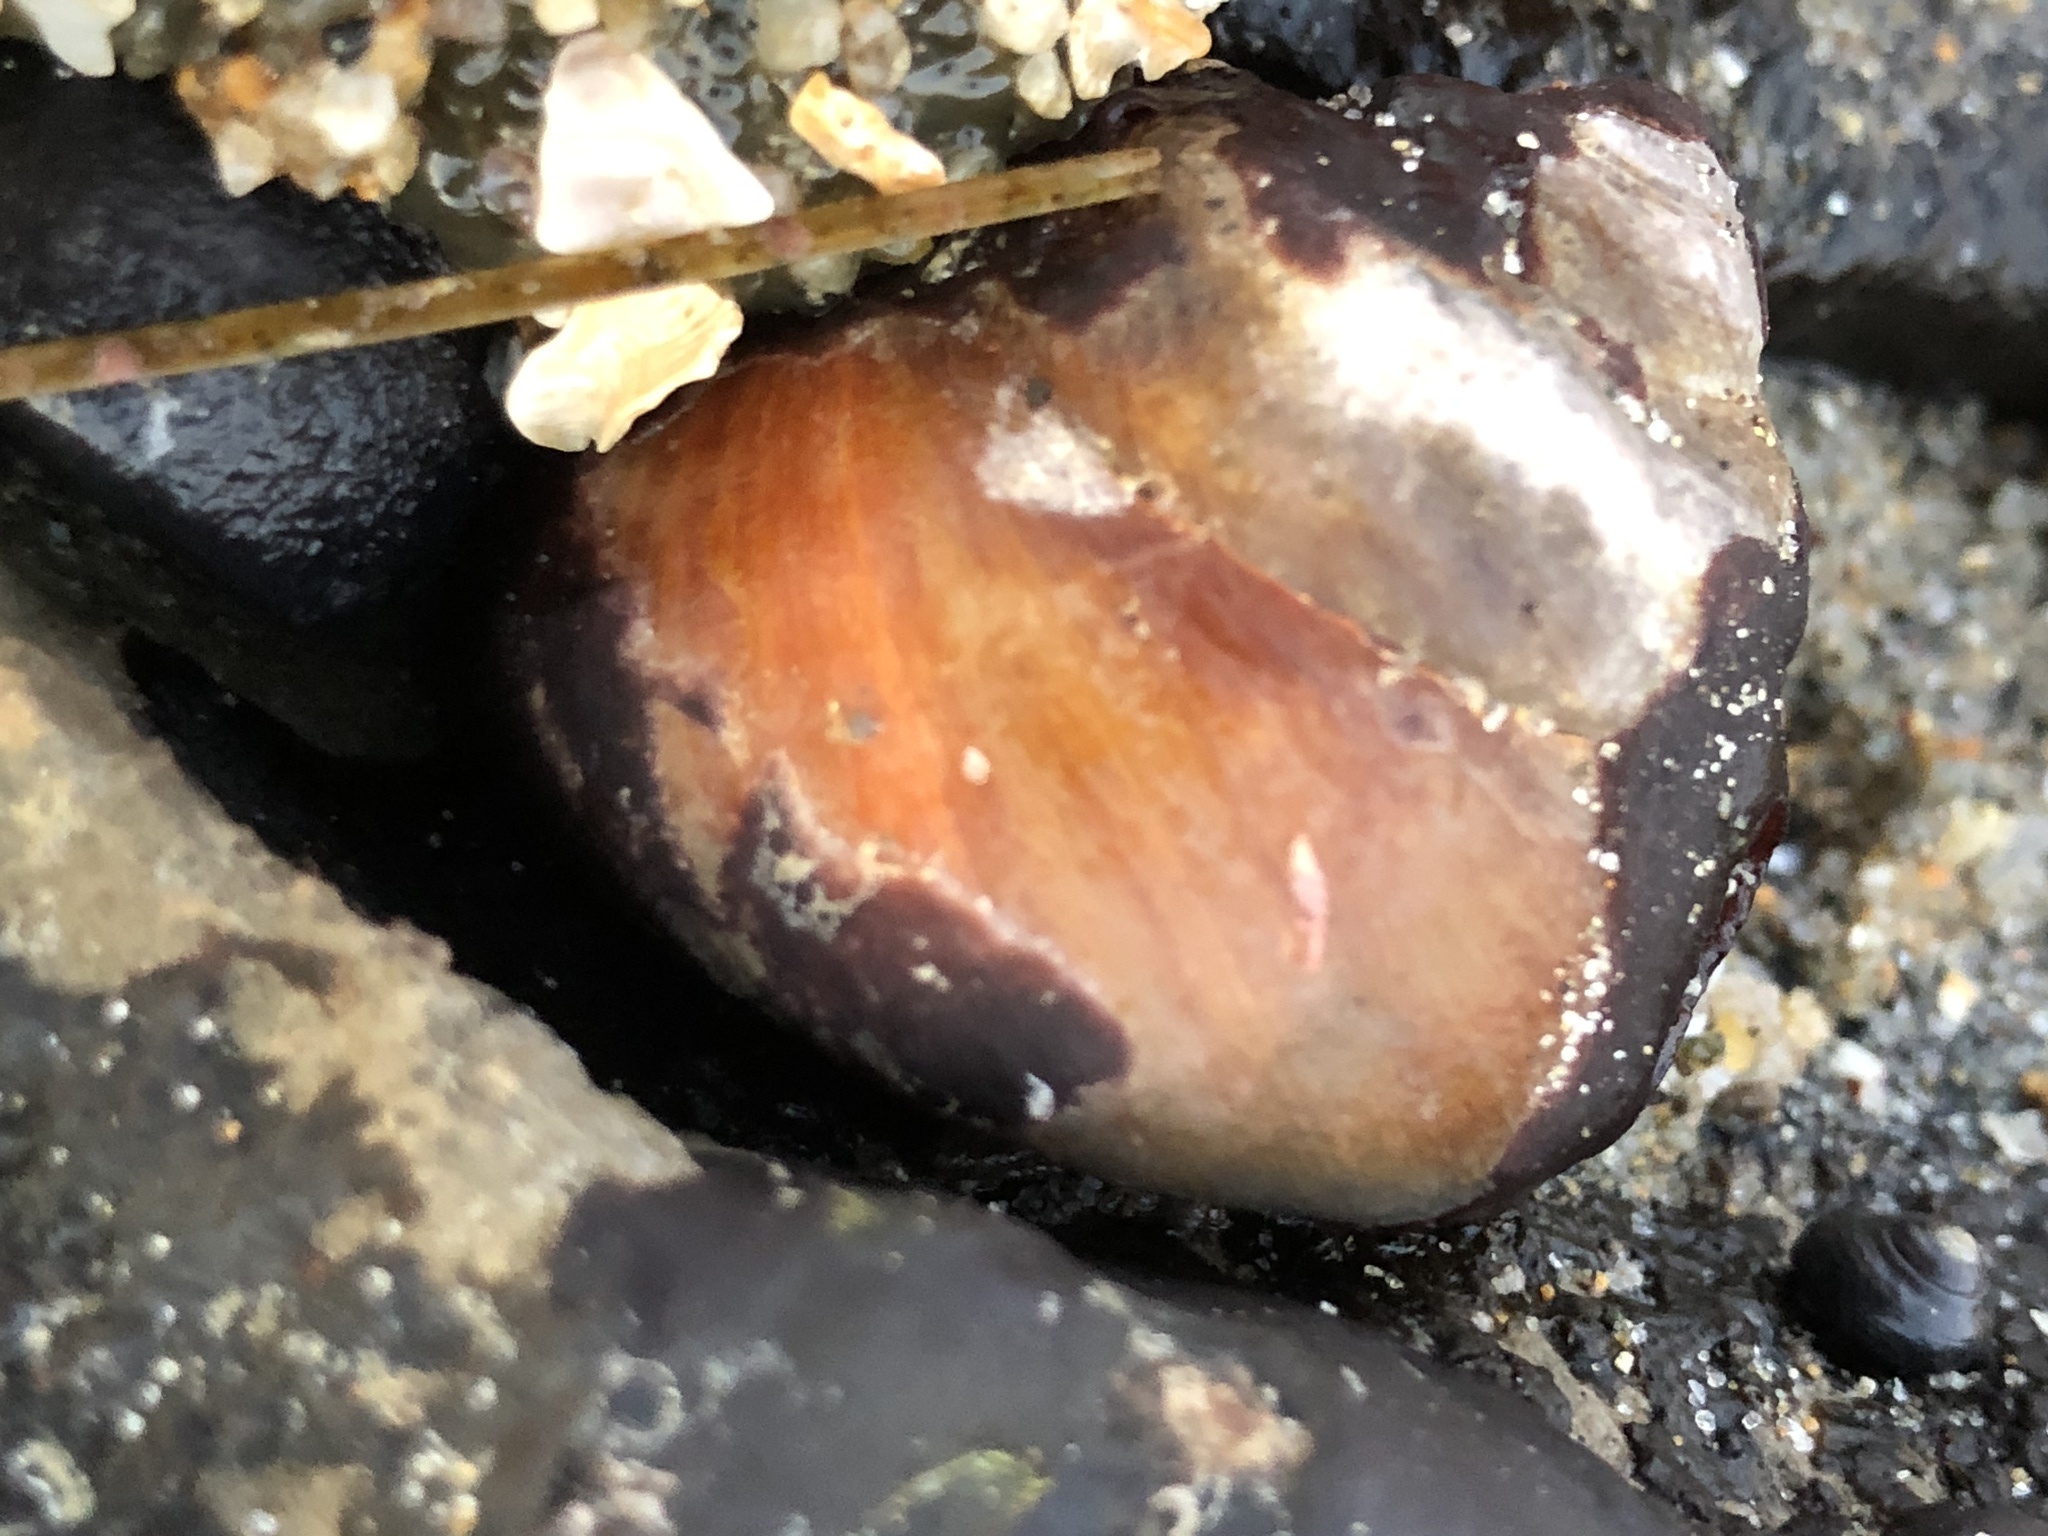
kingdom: Animalia
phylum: Mollusca
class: Gastropoda
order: Trochida
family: Tegulidae
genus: Tegula
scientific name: Tegula brunnea
